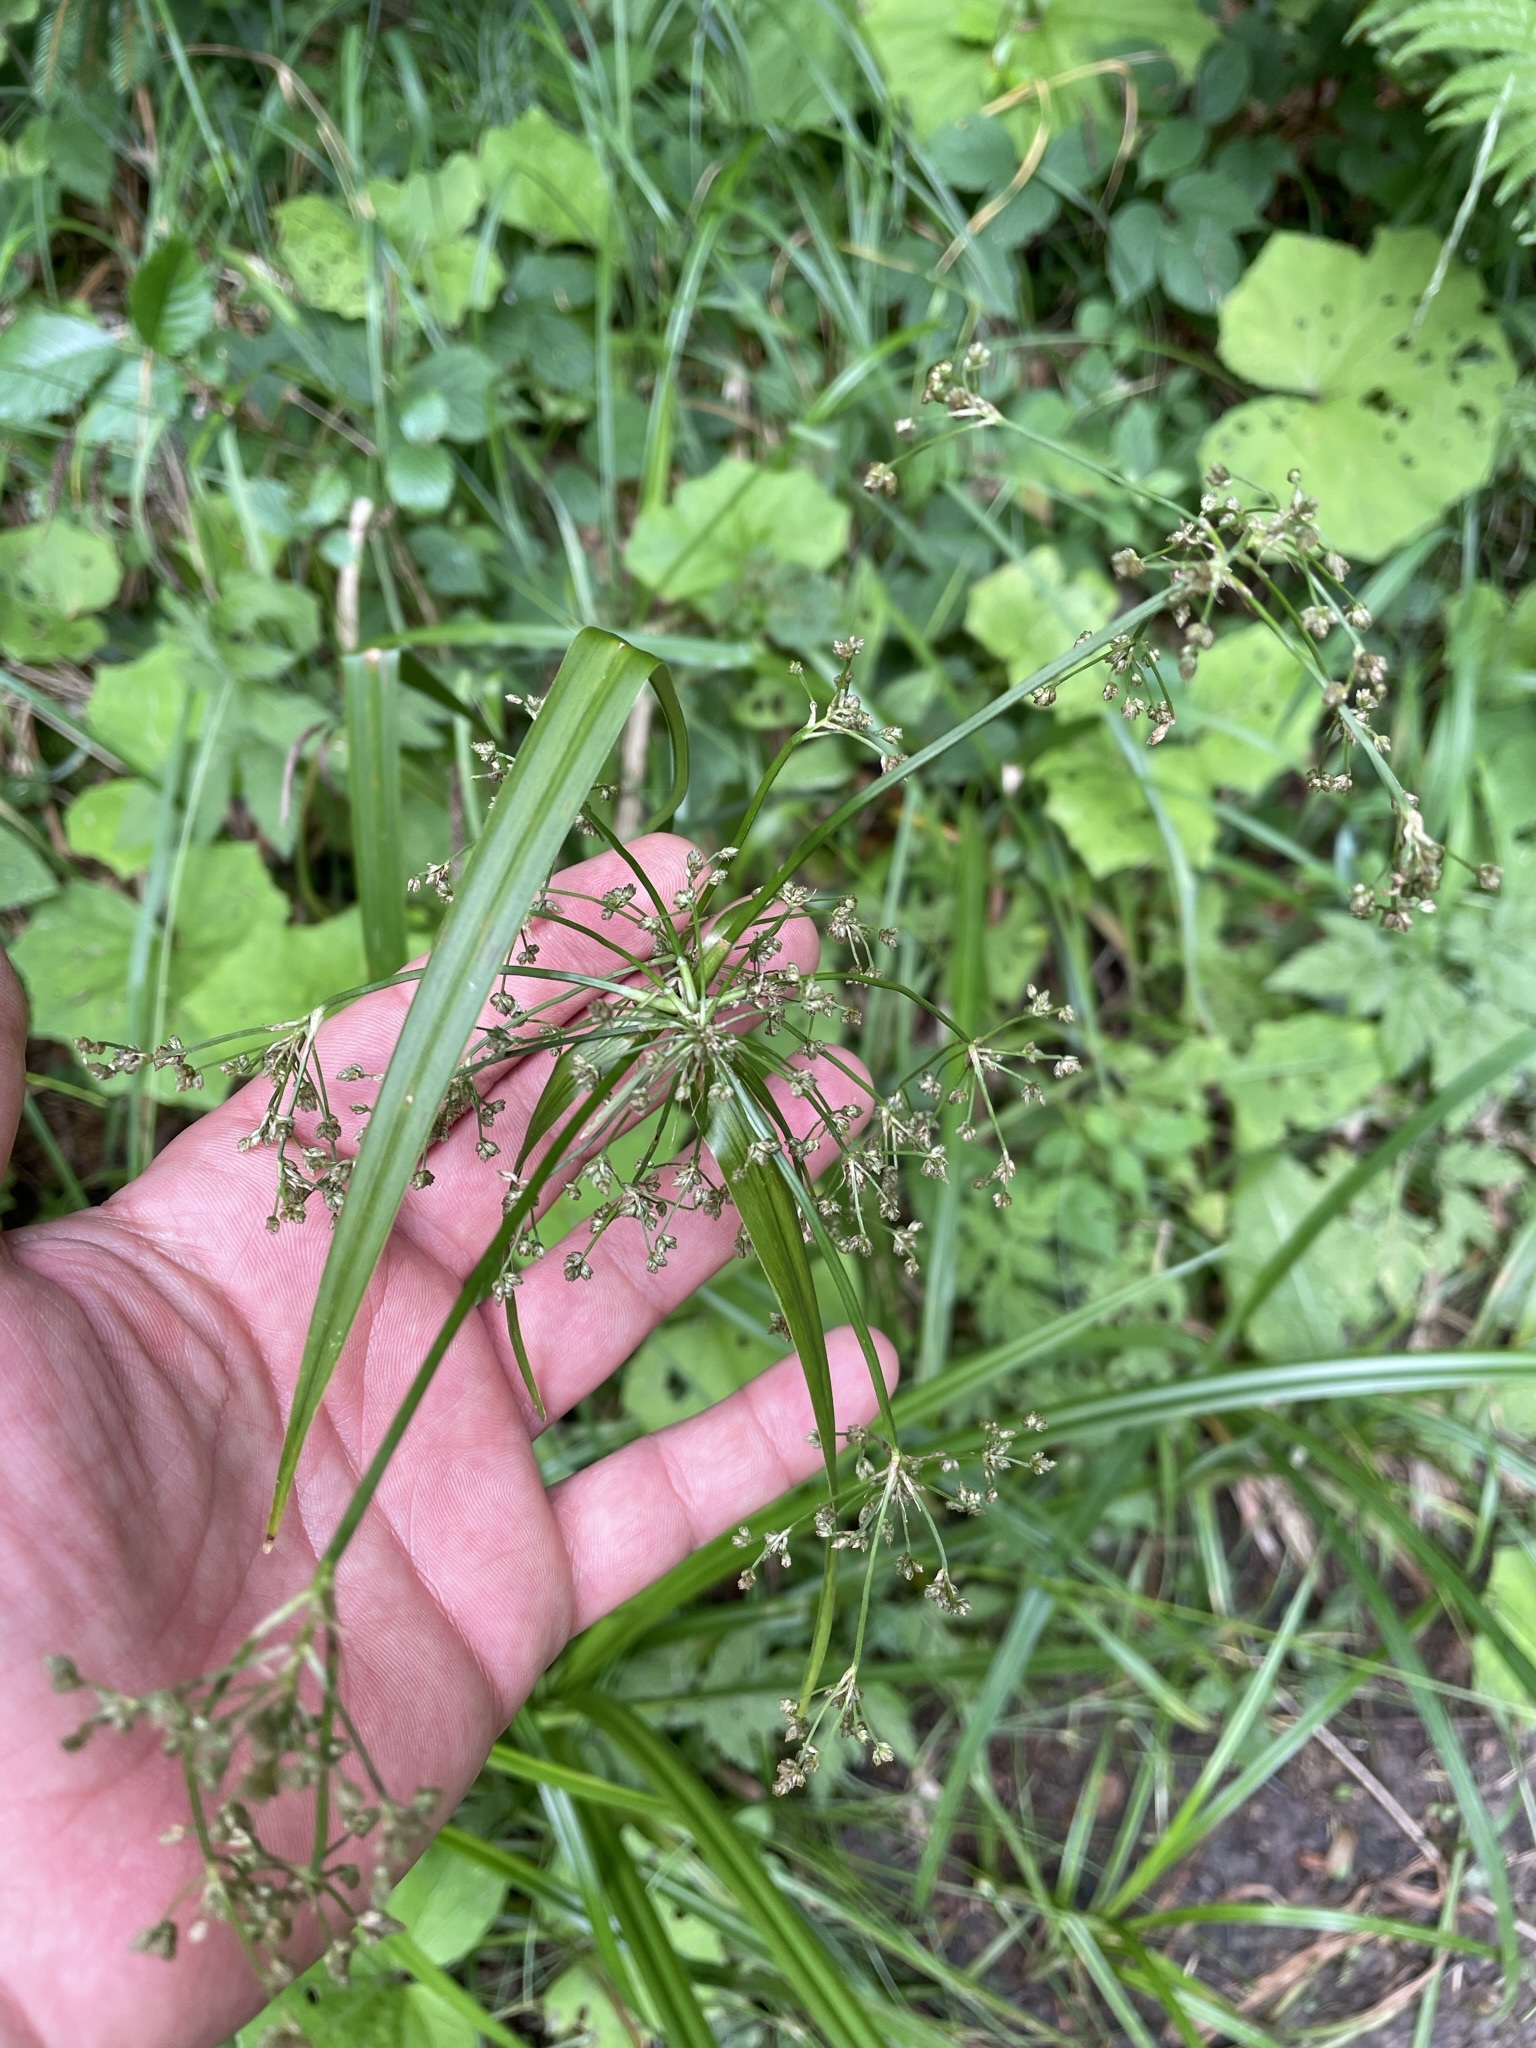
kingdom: Plantae
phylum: Tracheophyta
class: Liliopsida
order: Poales
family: Cyperaceae
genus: Scirpus
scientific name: Scirpus sylvaticus
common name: Wood club-rush
